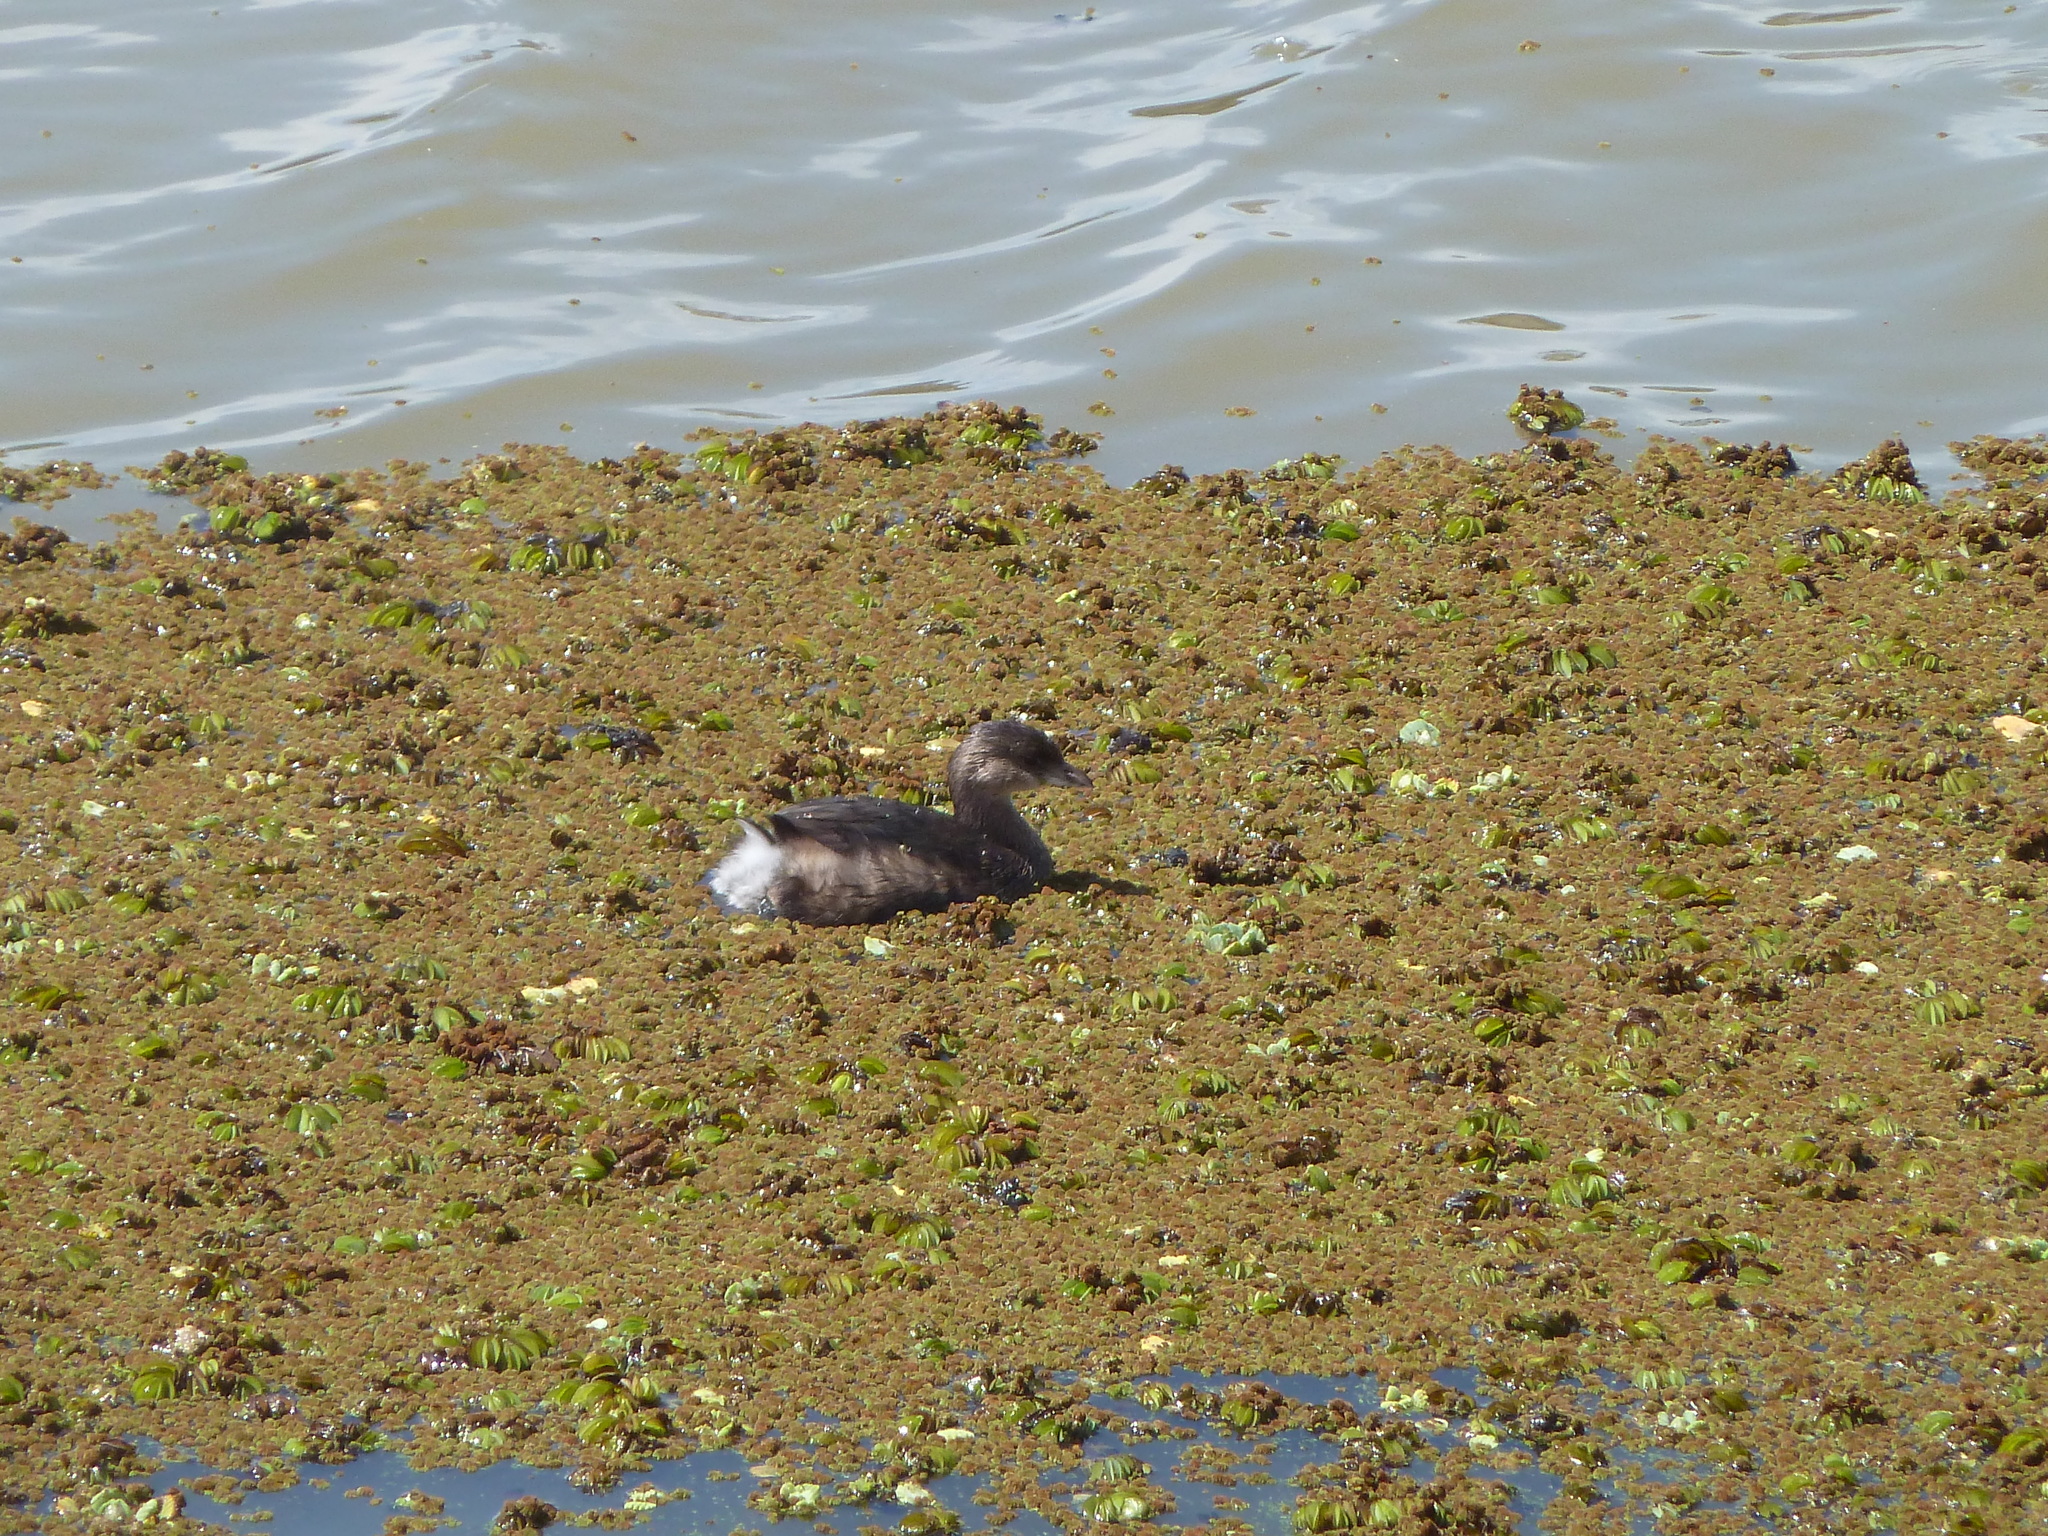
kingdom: Animalia
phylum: Chordata
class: Aves
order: Podicipediformes
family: Podicipedidae
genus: Podilymbus
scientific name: Podilymbus podiceps
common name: Pied-billed grebe
